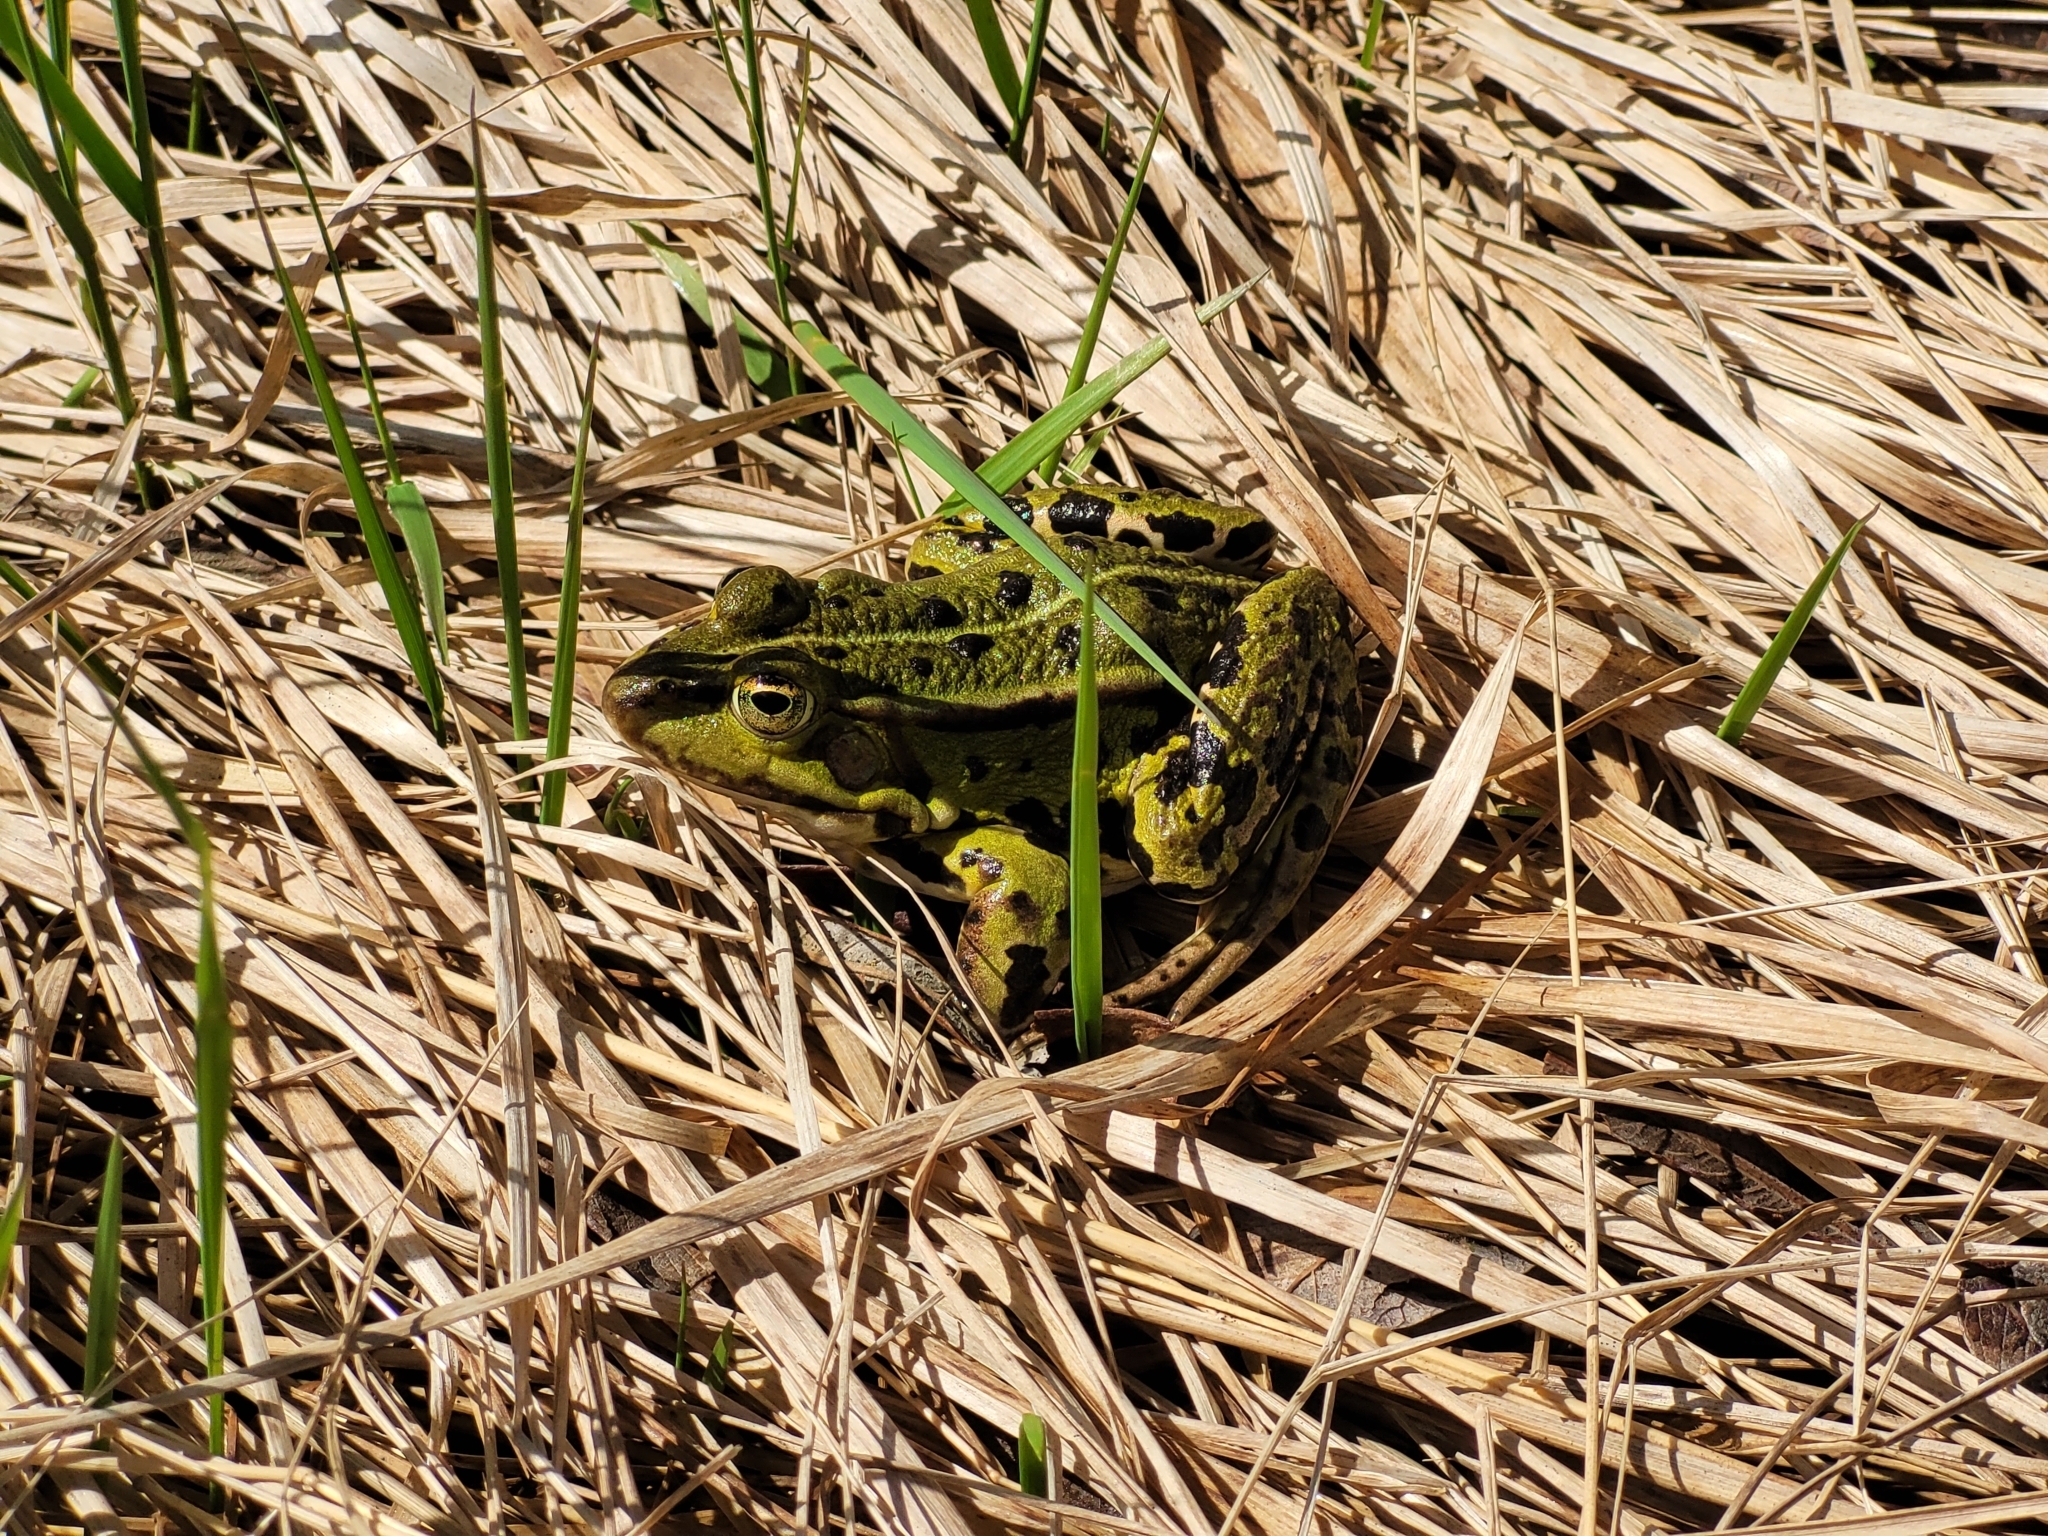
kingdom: Animalia
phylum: Chordata
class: Amphibia
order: Anura
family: Ranidae
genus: Pelophylax
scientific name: Pelophylax lessonae
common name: Pool frog
